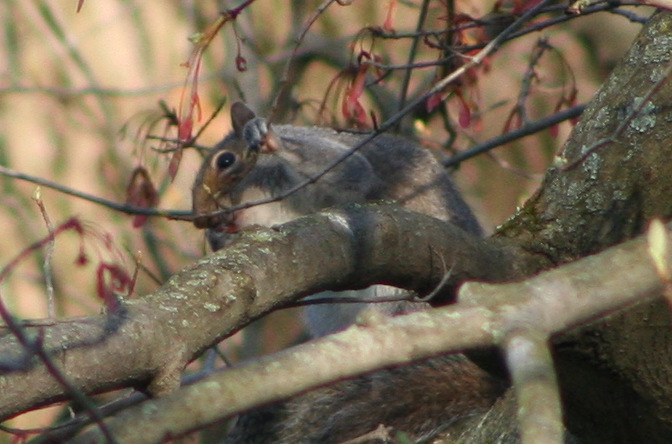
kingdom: Animalia
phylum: Chordata
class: Mammalia
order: Rodentia
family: Sciuridae
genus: Sciurus
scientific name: Sciurus carolinensis
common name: Eastern gray squirrel
